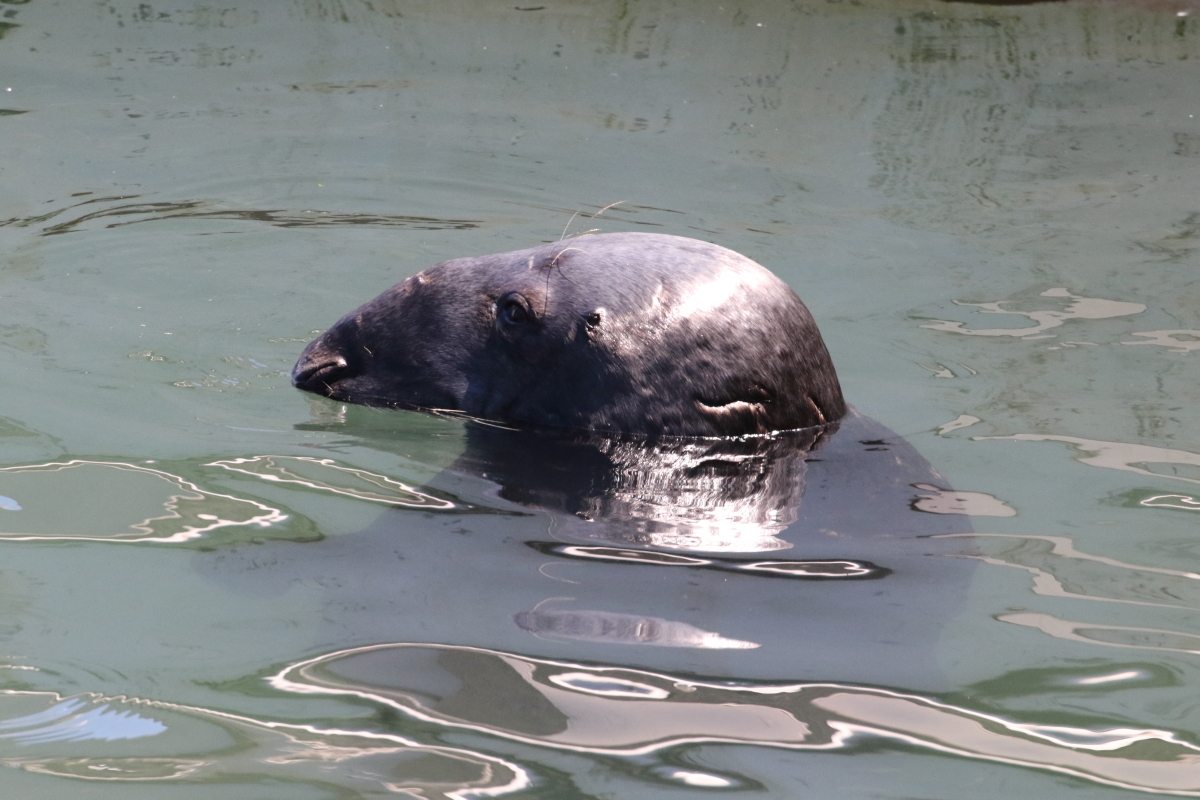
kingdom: Animalia
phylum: Chordata
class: Mammalia
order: Carnivora
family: Phocidae
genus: Halichoerus
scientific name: Halichoerus grypus
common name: Grey seal
